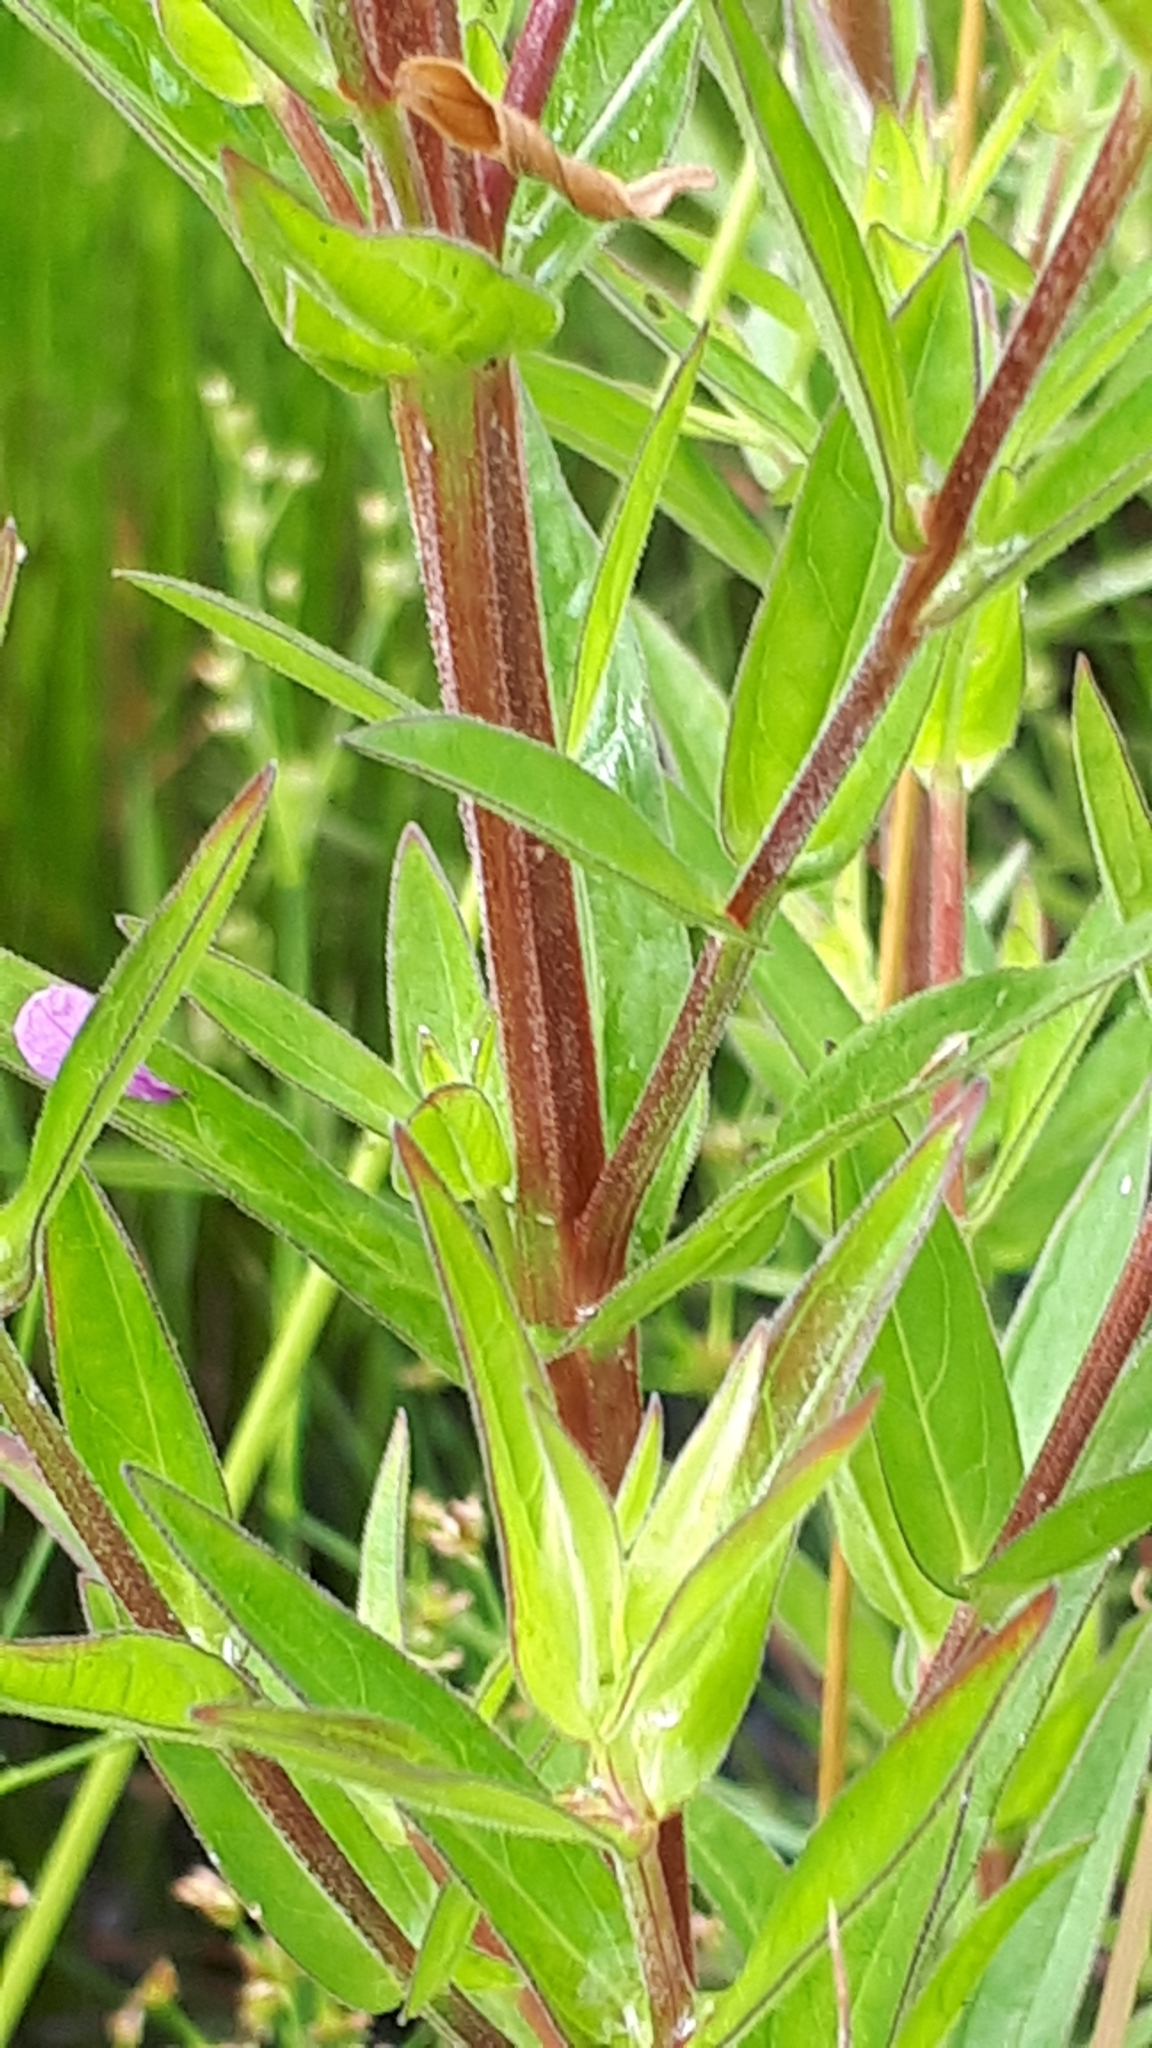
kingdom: Plantae
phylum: Tracheophyta
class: Magnoliopsida
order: Myrtales
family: Lythraceae
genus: Lythrum
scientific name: Lythrum salicaria
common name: Purple loosestrife
